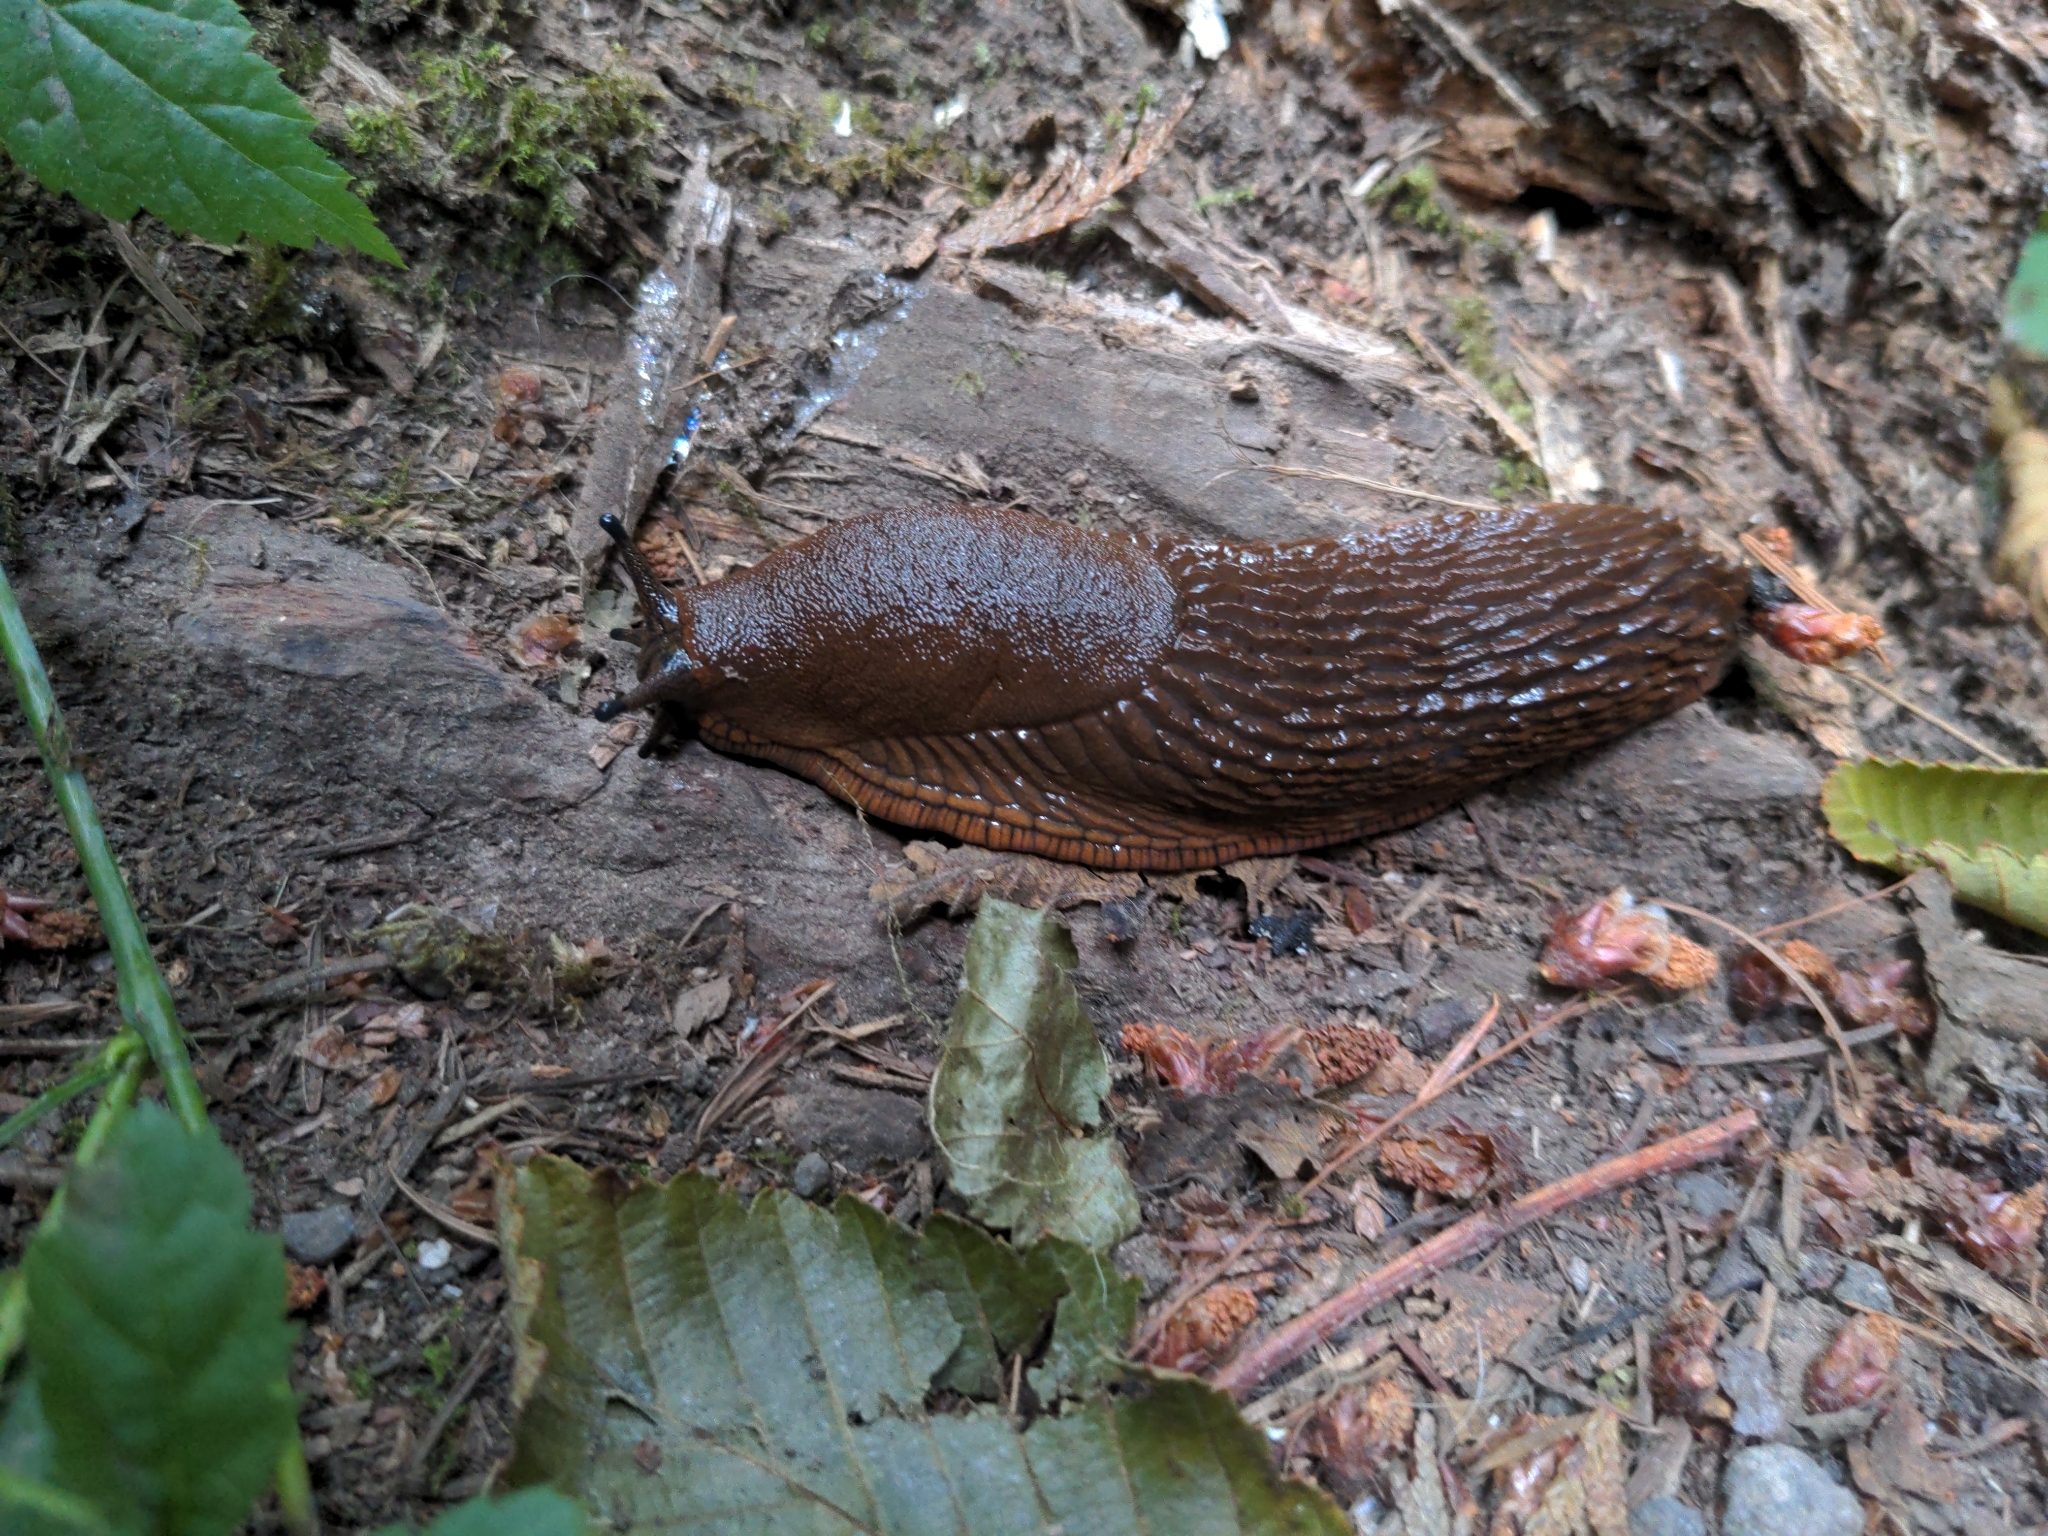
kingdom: Animalia
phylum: Mollusca
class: Gastropoda
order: Stylommatophora
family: Arionidae
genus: Arion
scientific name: Arion
